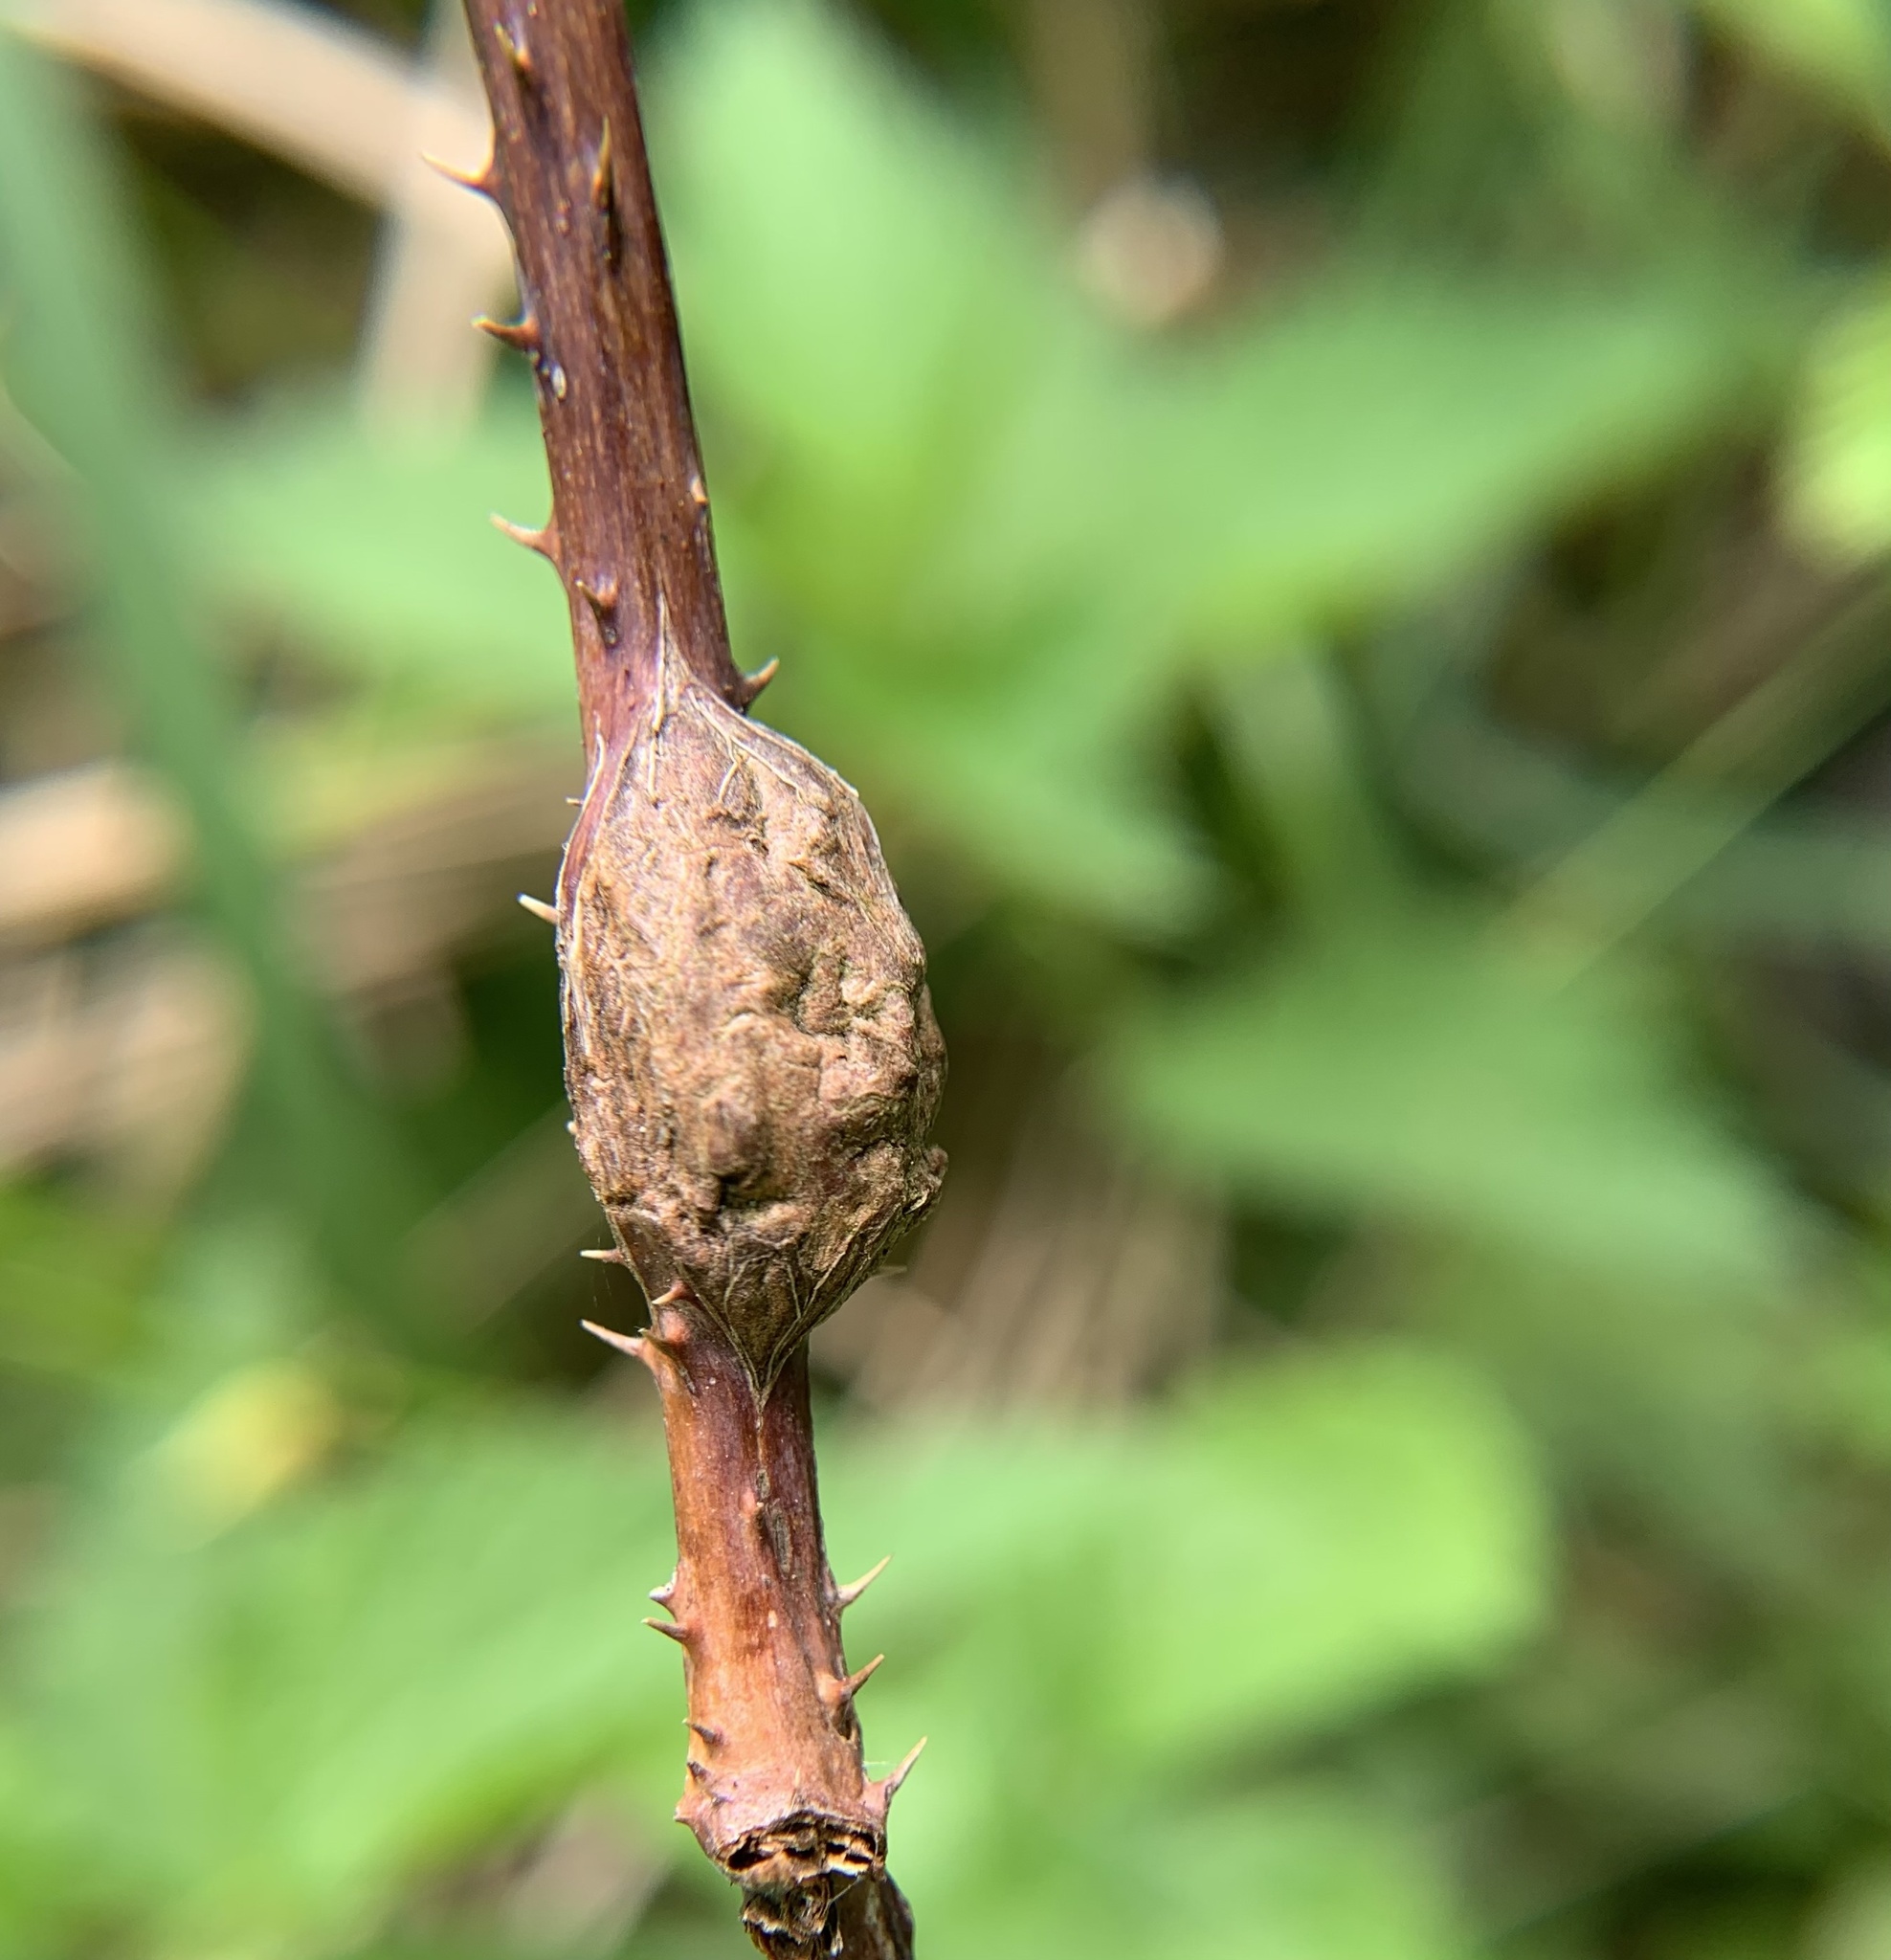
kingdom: Animalia
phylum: Arthropoda
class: Insecta
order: Diptera
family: Cecidomyiidae
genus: Lasioptera
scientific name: Lasioptera rubi
